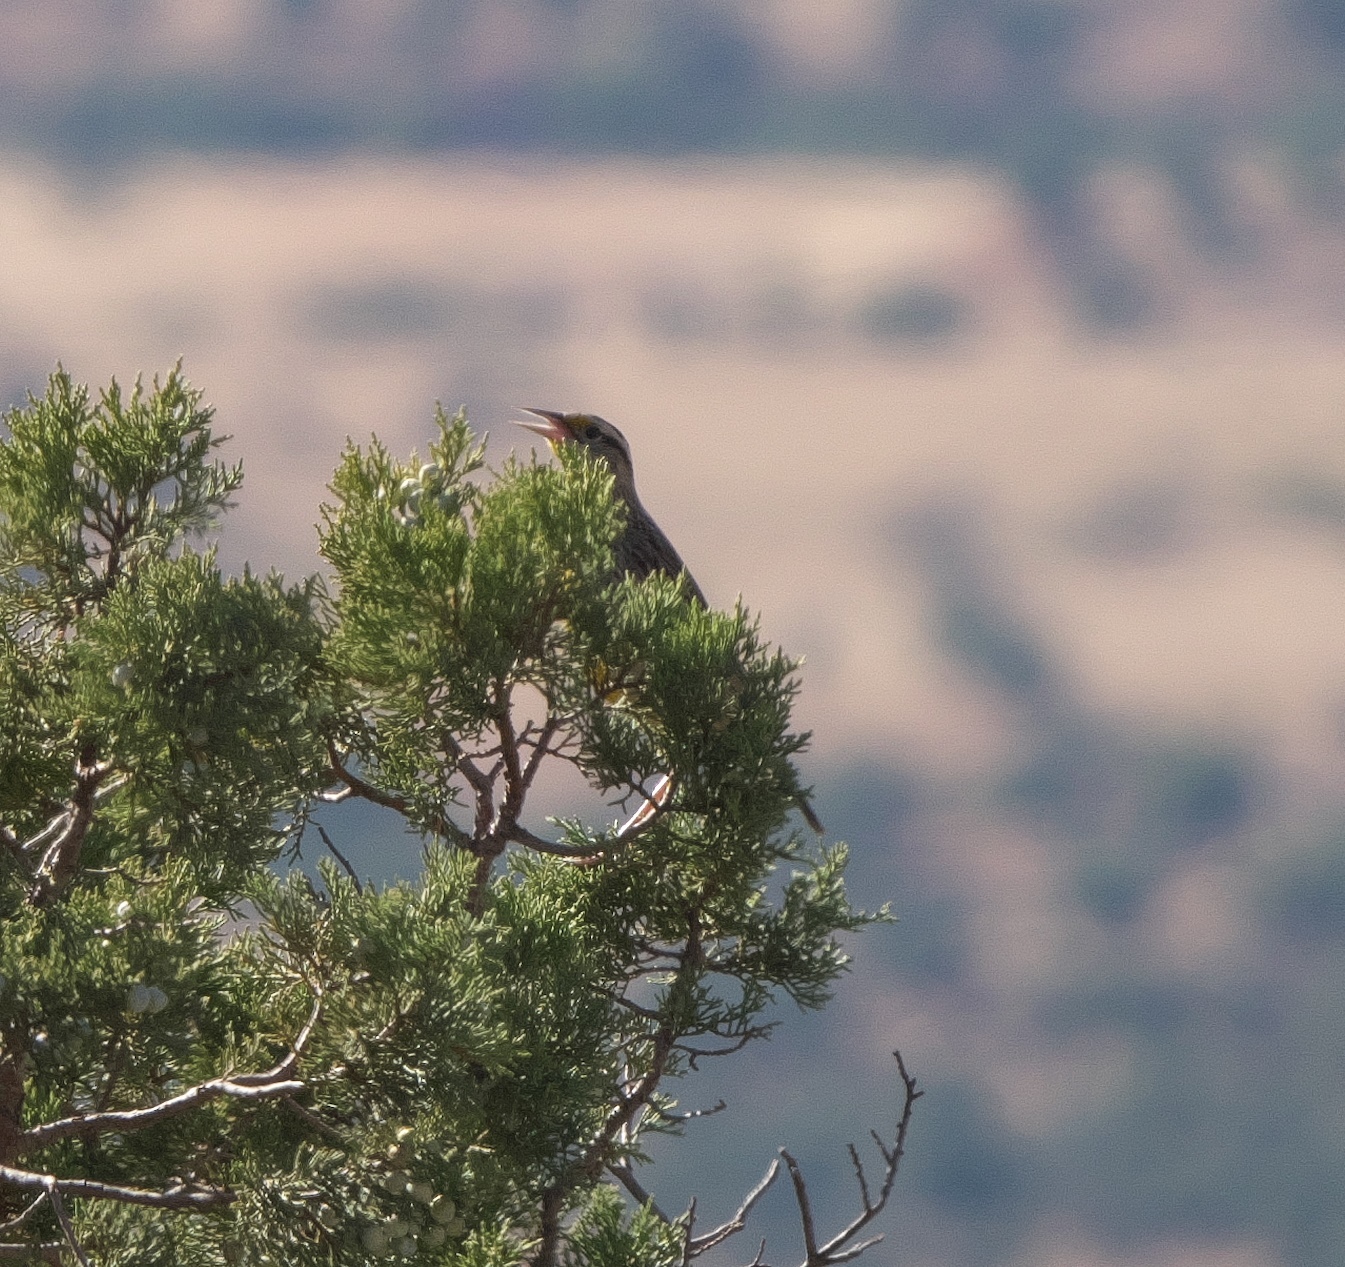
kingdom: Animalia
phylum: Chordata
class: Aves
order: Passeriformes
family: Icteridae
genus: Sturnella
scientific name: Sturnella neglecta
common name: Western meadowlark
